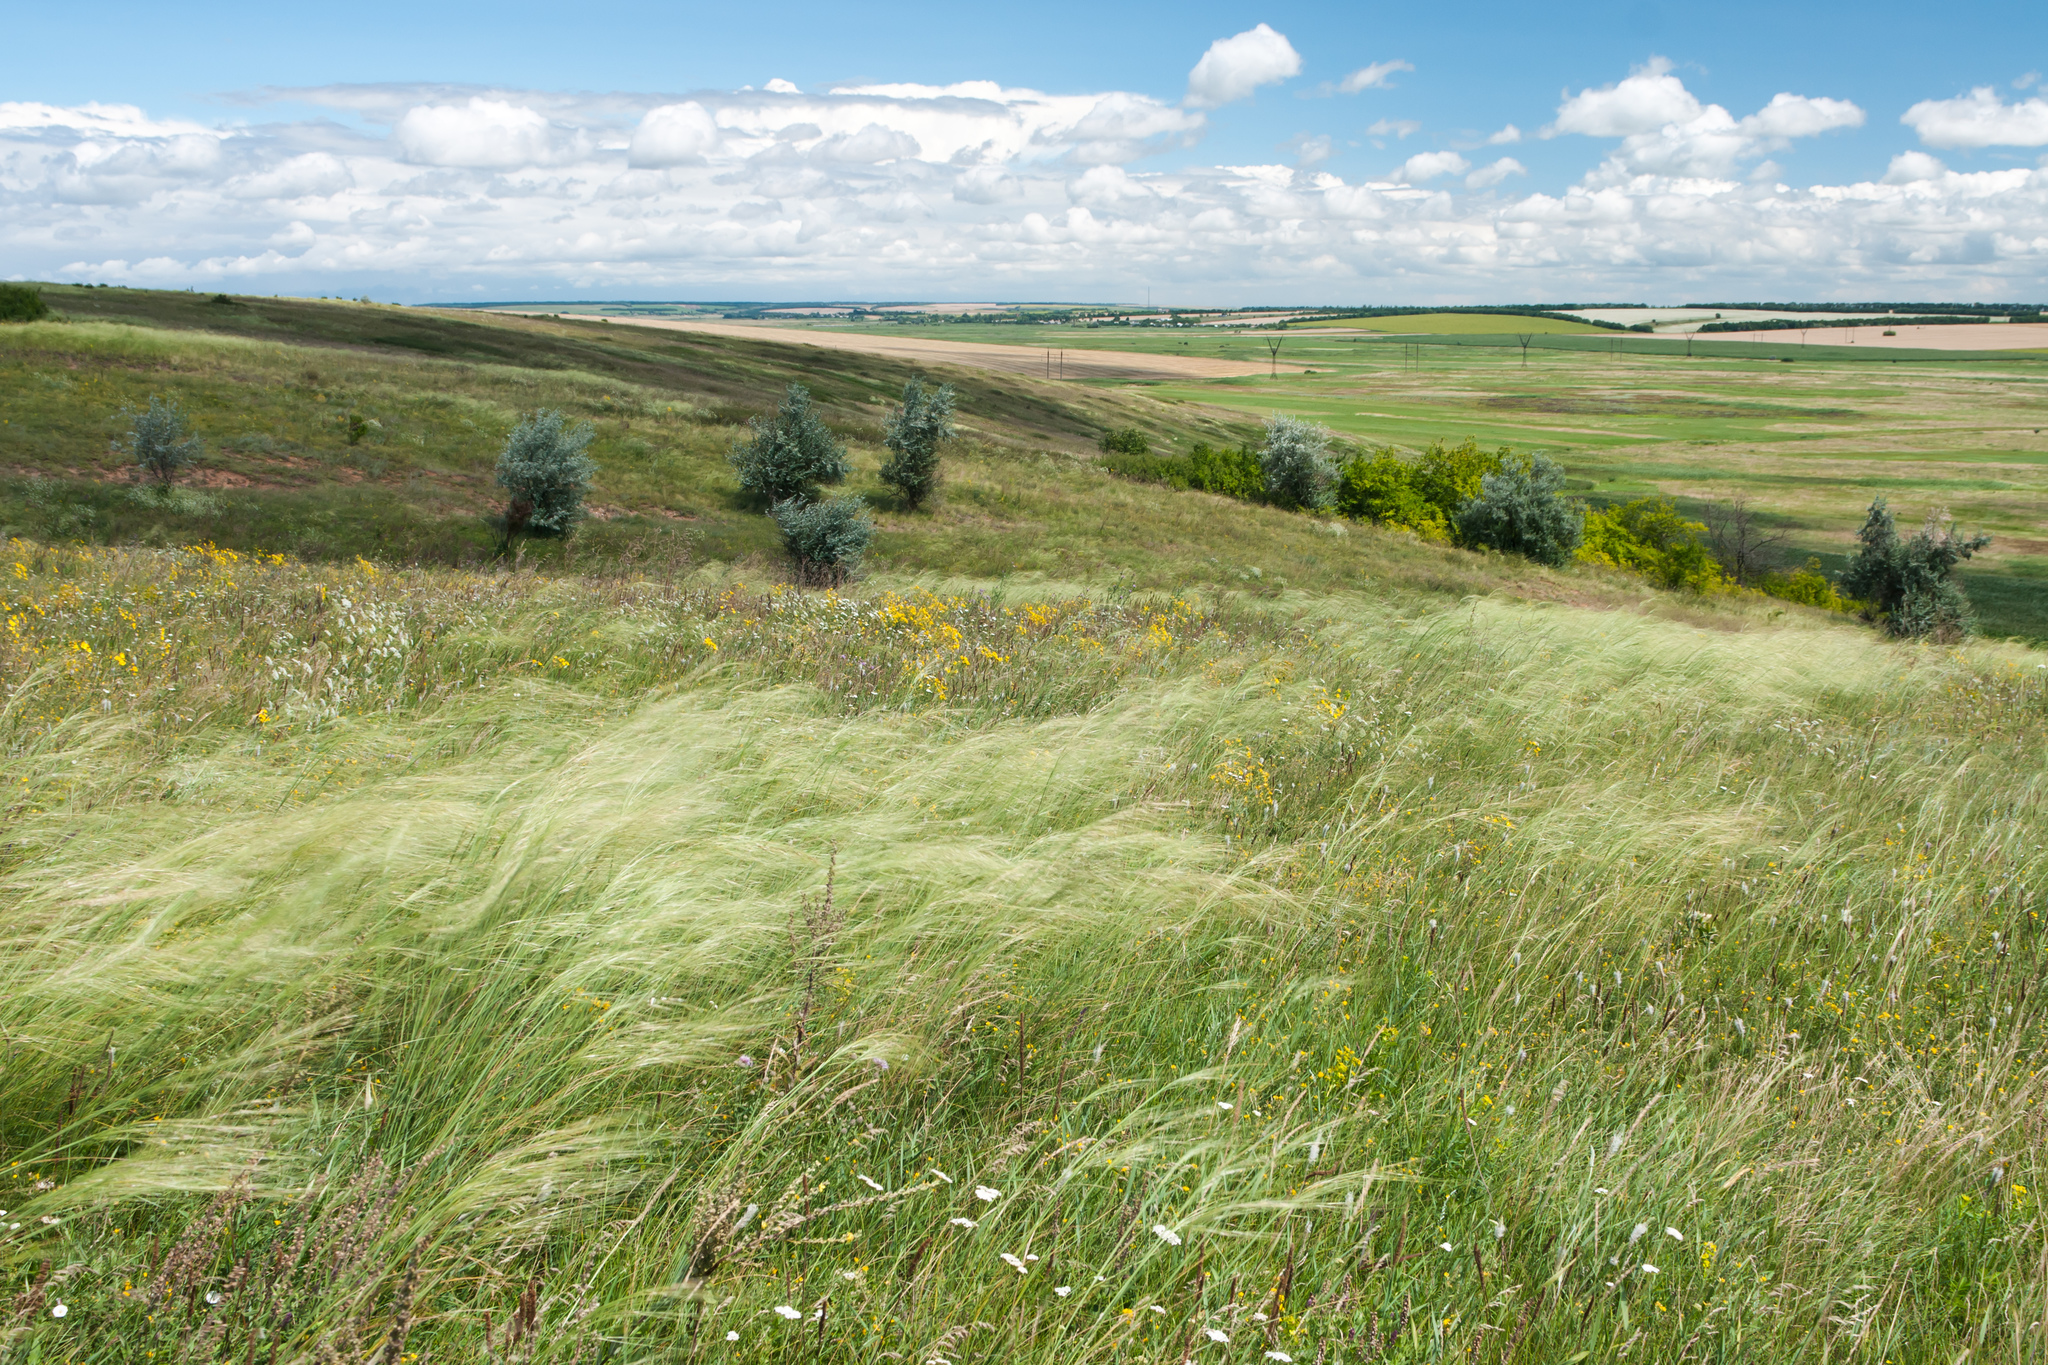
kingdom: Plantae
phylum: Tracheophyta
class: Liliopsida
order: Poales
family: Poaceae
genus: Stipa
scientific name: Stipa capillata
